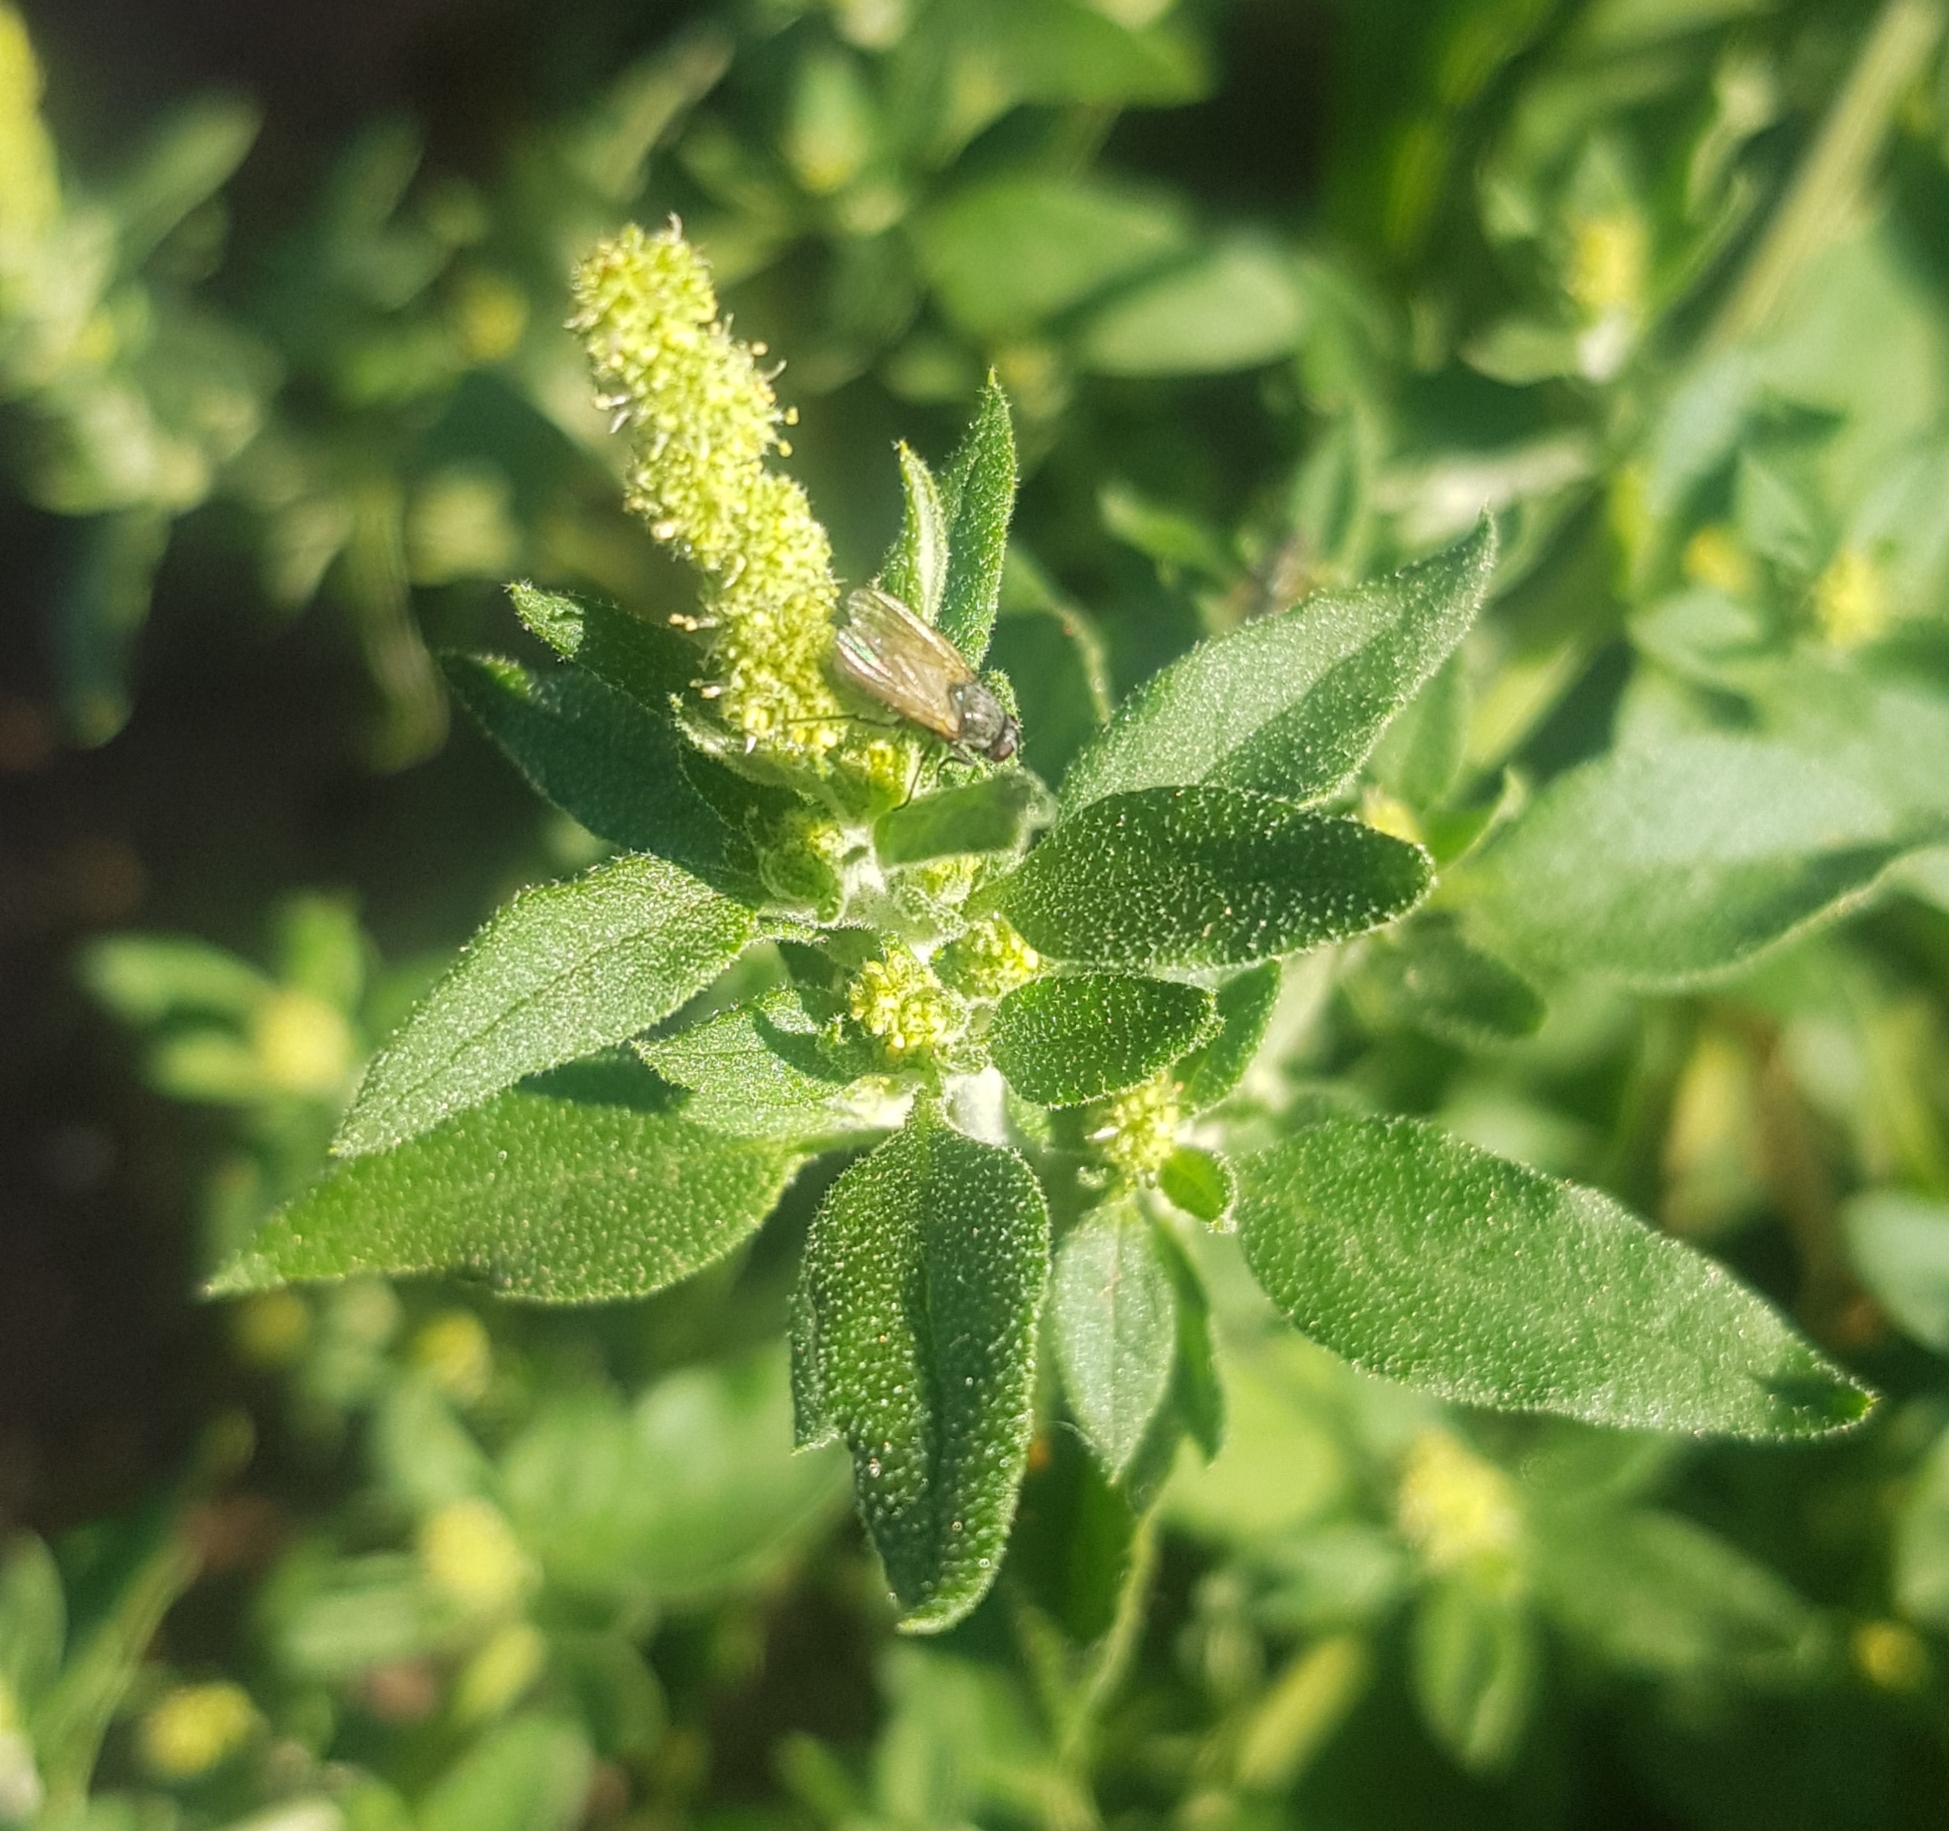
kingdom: Plantae
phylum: Tracheophyta
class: Magnoliopsida
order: Caryophyllales
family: Amaranthaceae
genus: Chenopodium
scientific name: Chenopodium album
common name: Fat-hen
